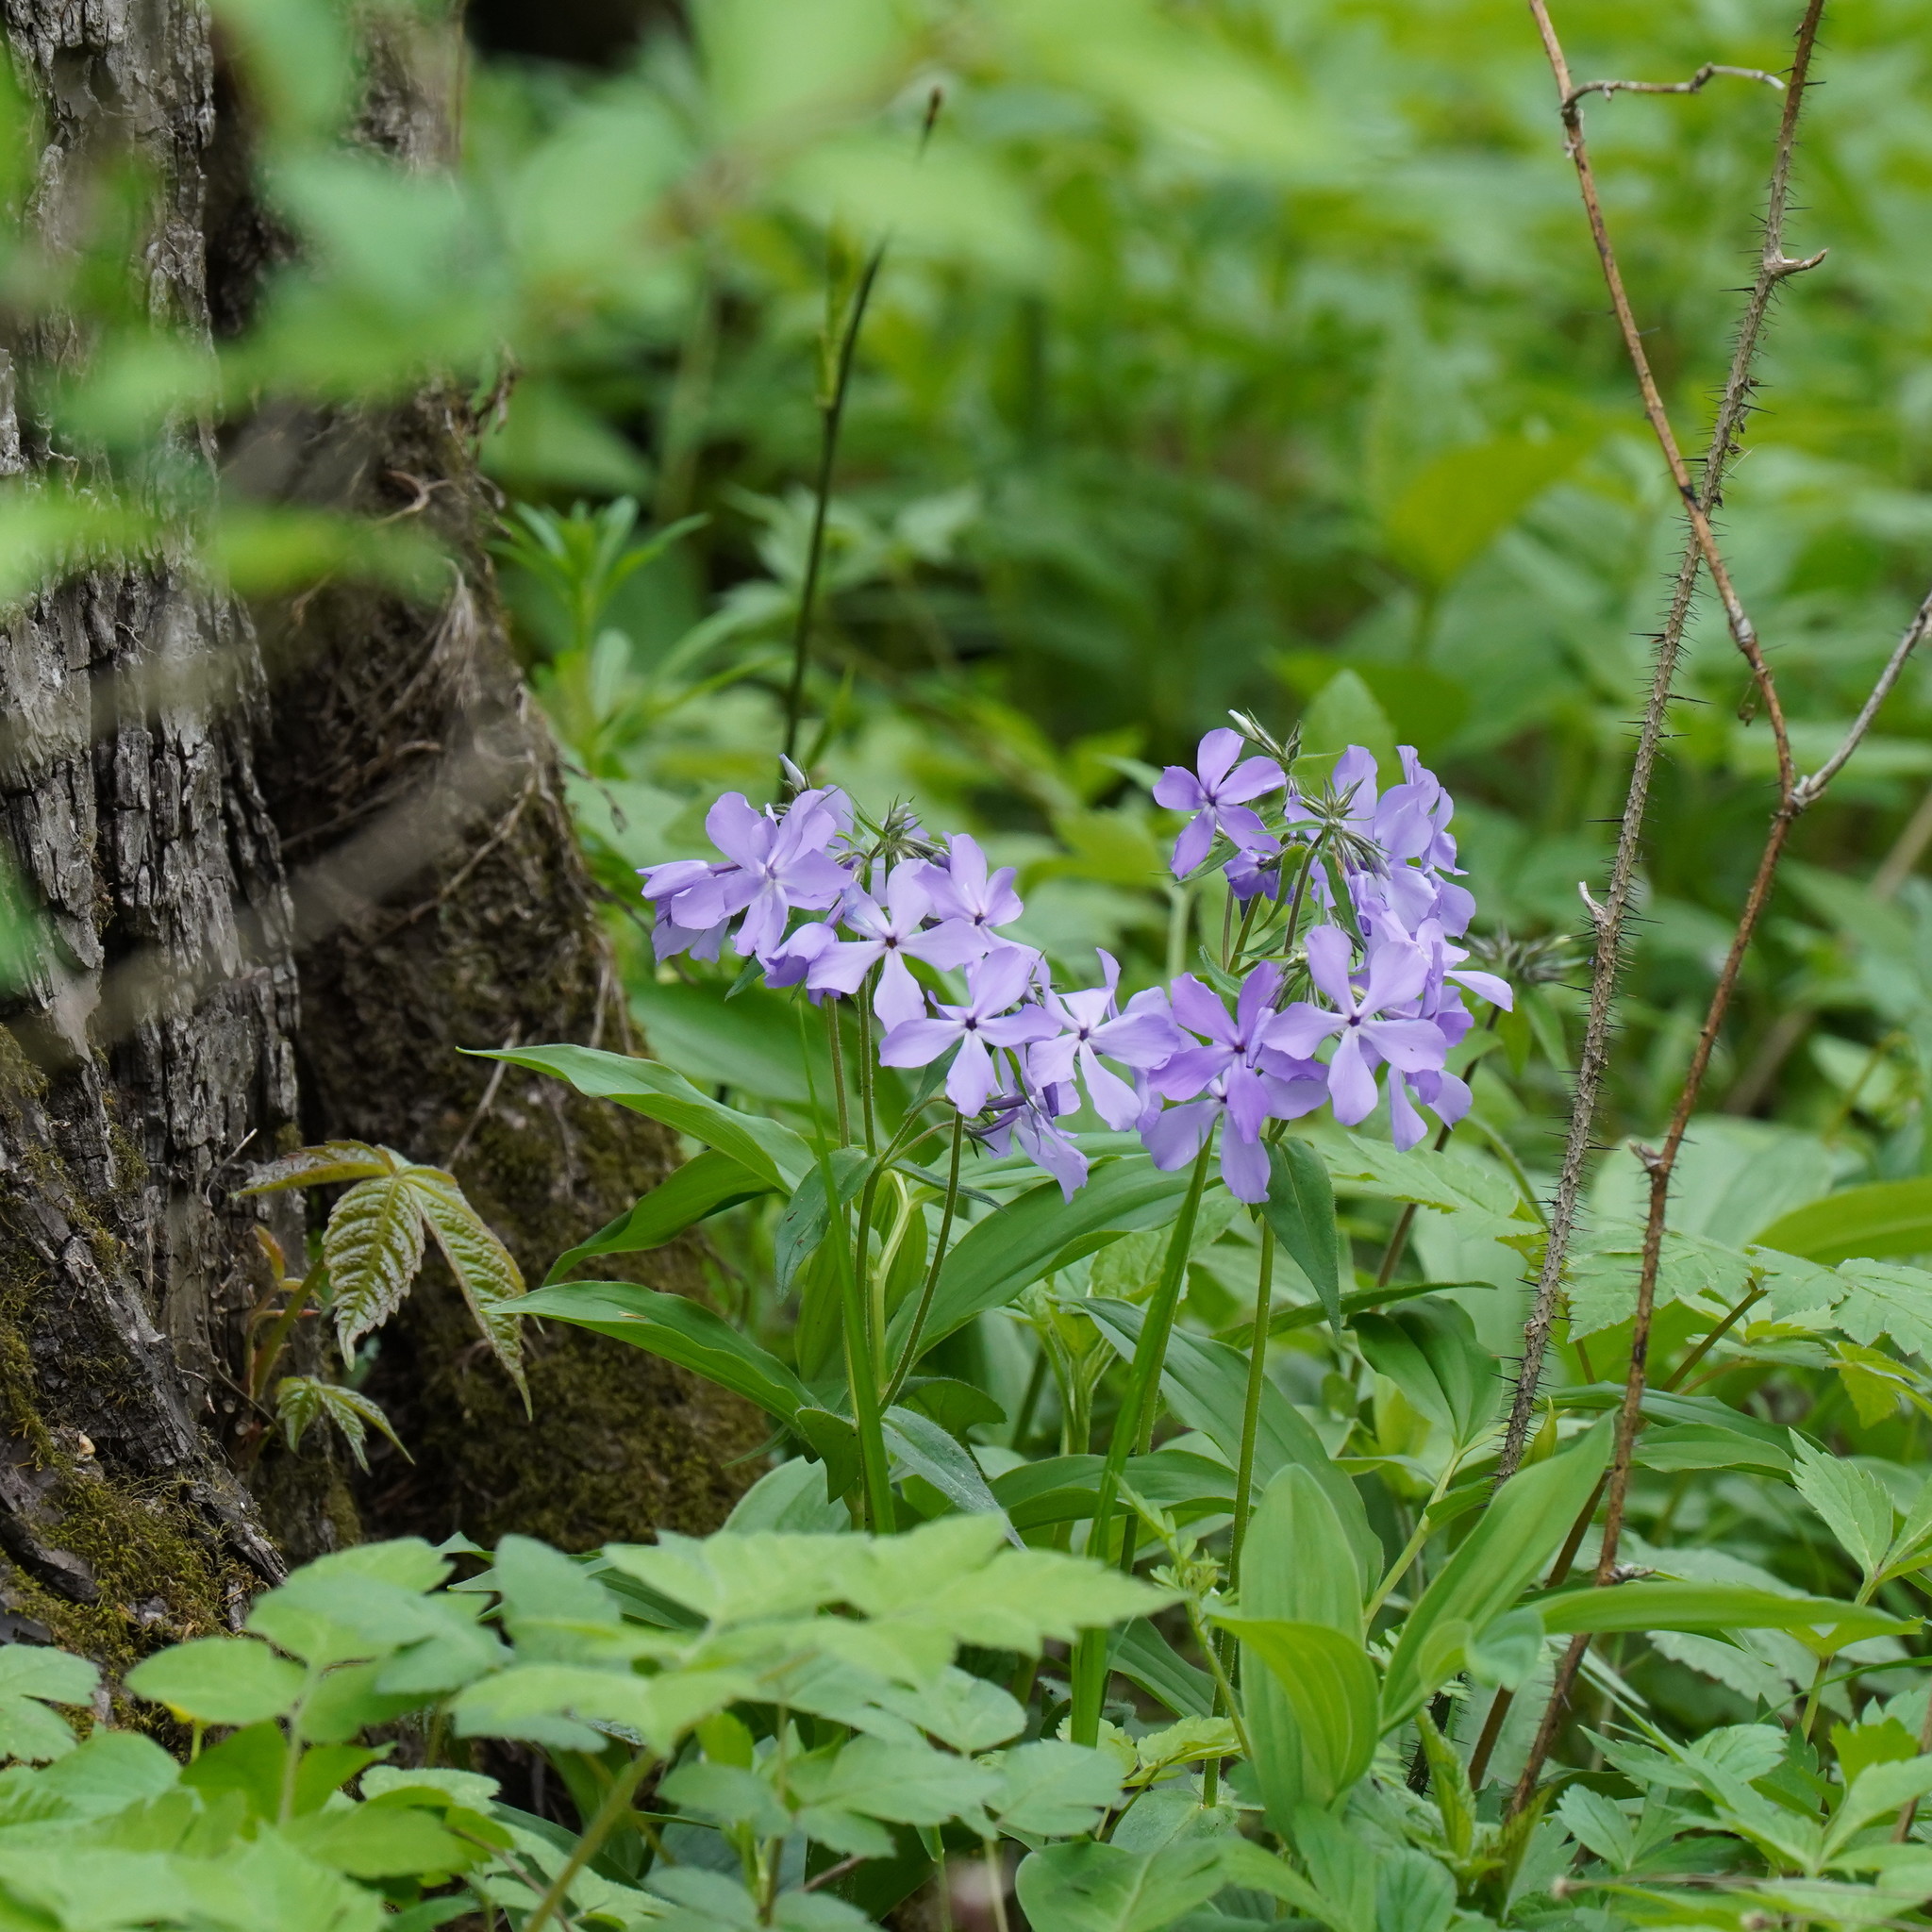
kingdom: Plantae
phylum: Tracheophyta
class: Magnoliopsida
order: Ericales
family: Polemoniaceae
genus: Phlox
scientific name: Phlox divaricata
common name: Blue phlox
